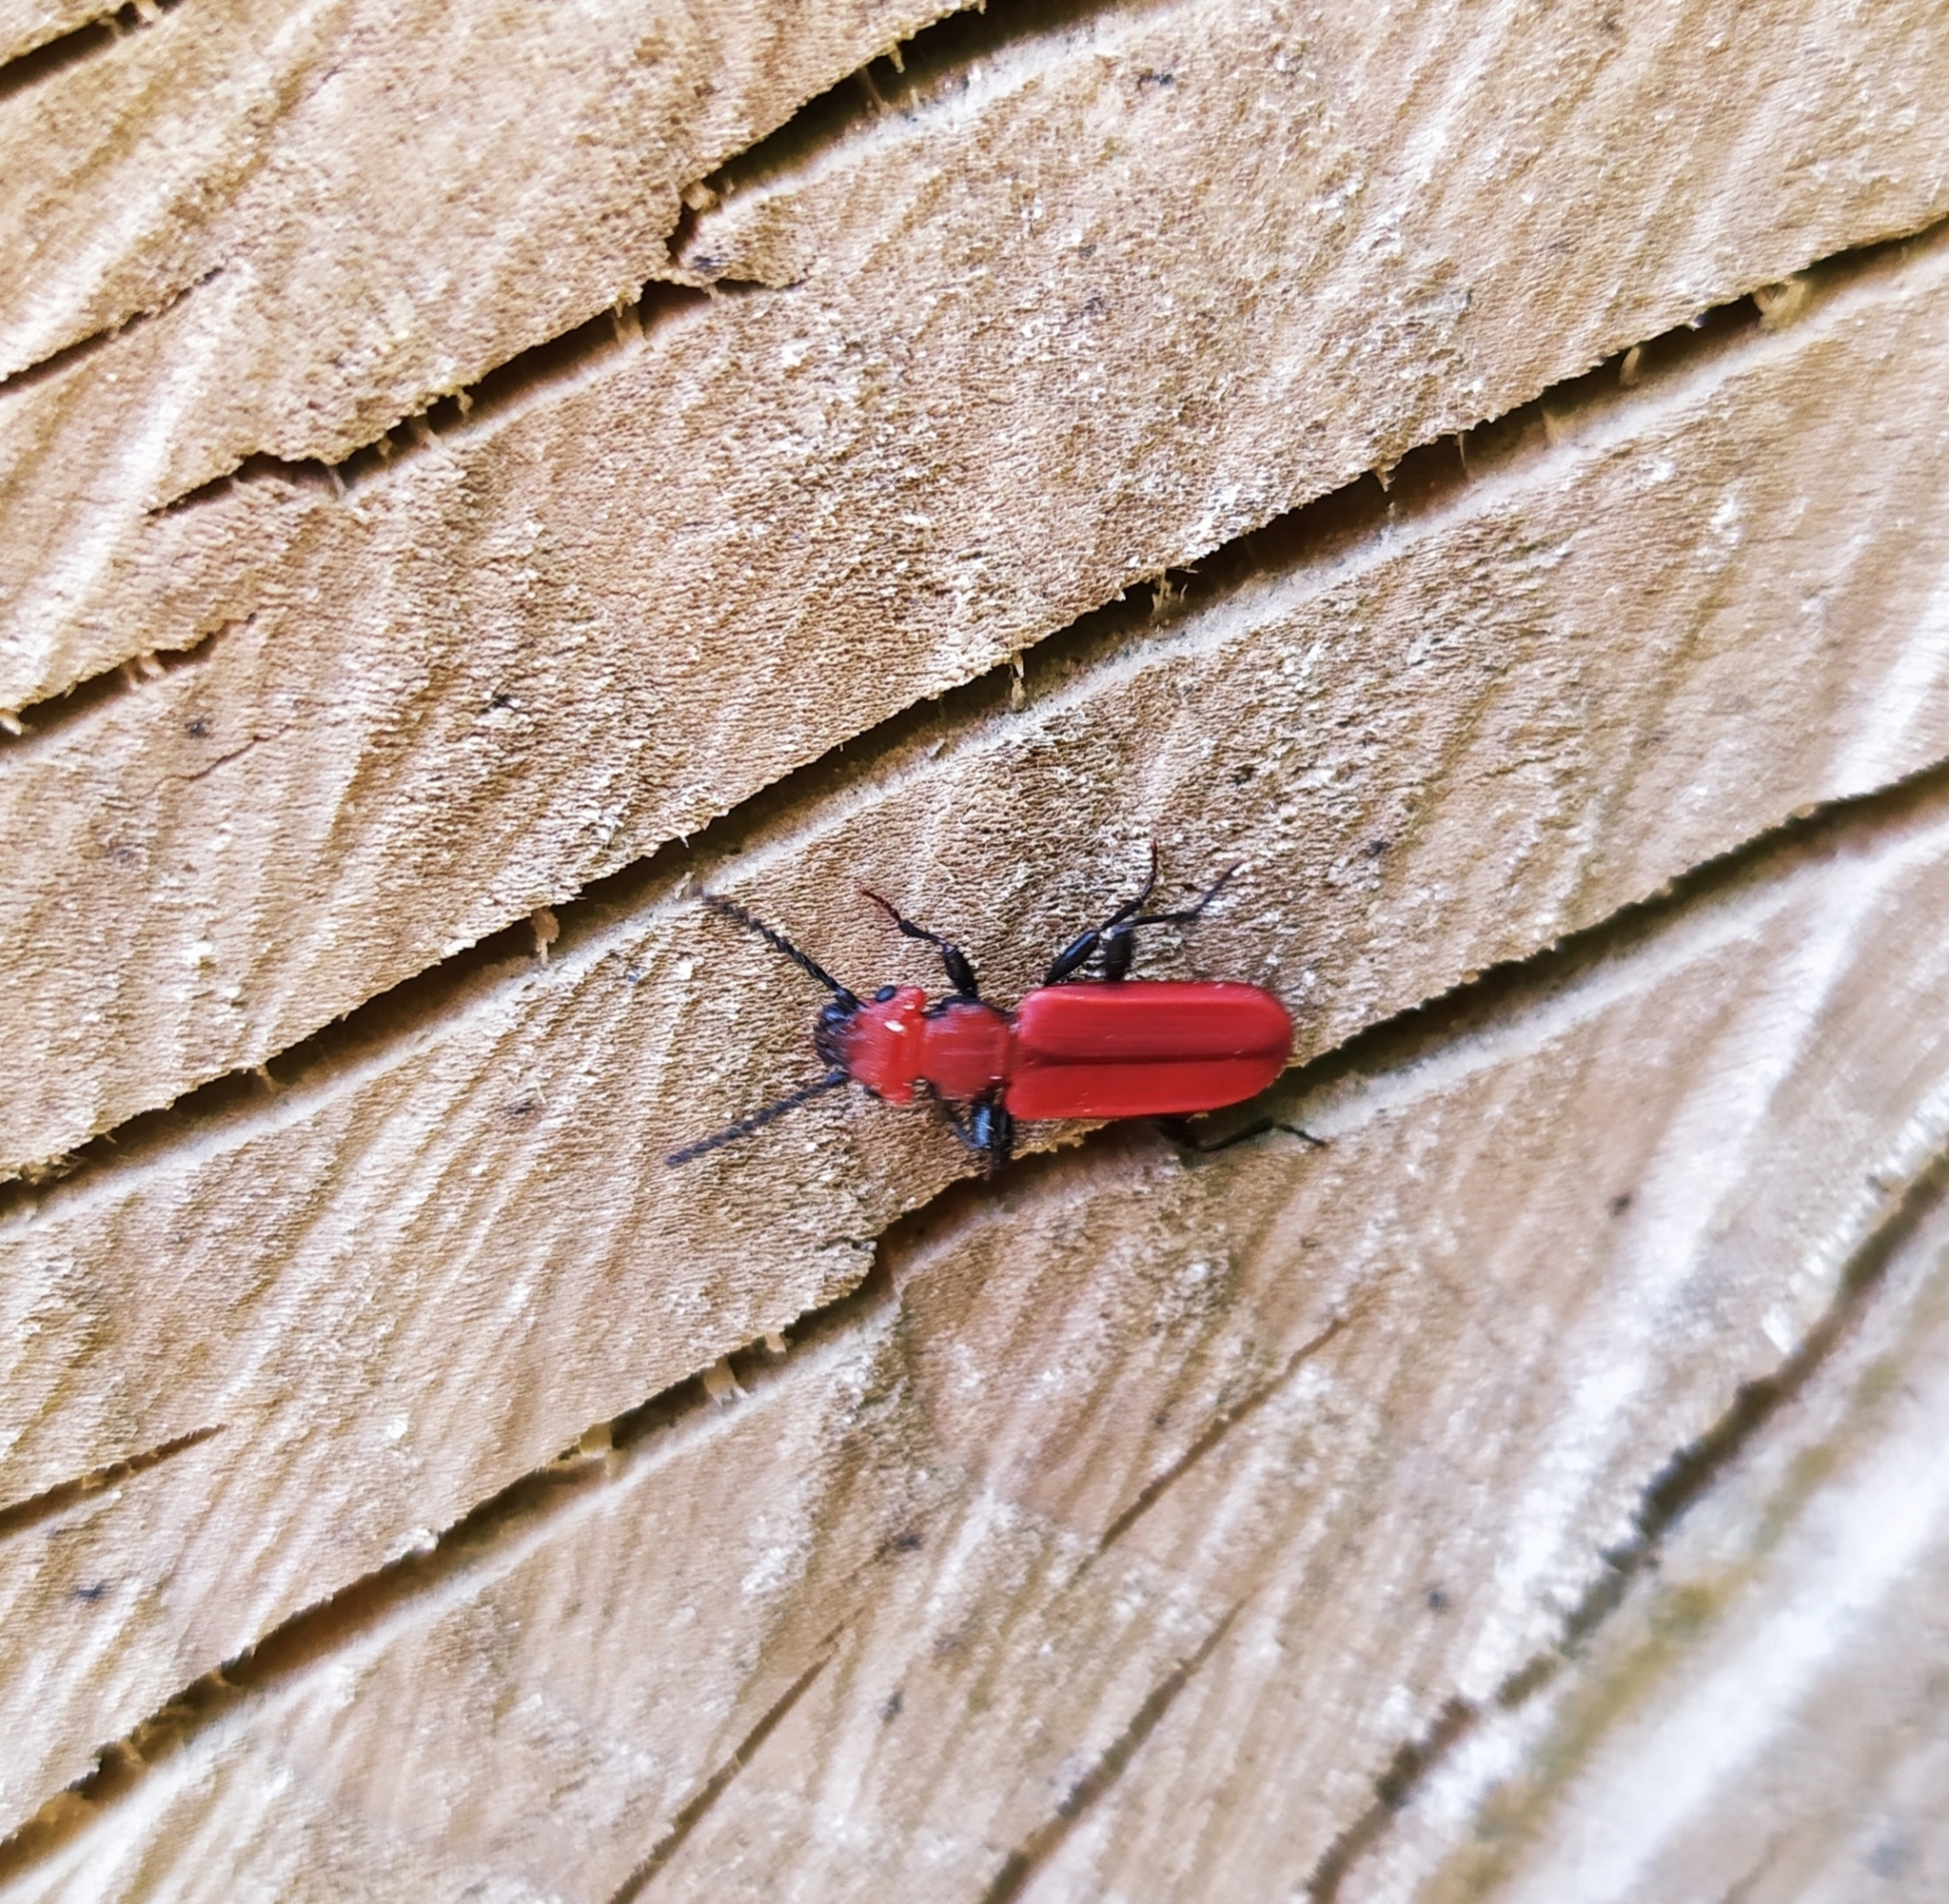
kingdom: Animalia
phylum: Arthropoda
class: Insecta
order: Coleoptera
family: Cucujidae
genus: Cucujus
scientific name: Cucujus cinnaberinus
